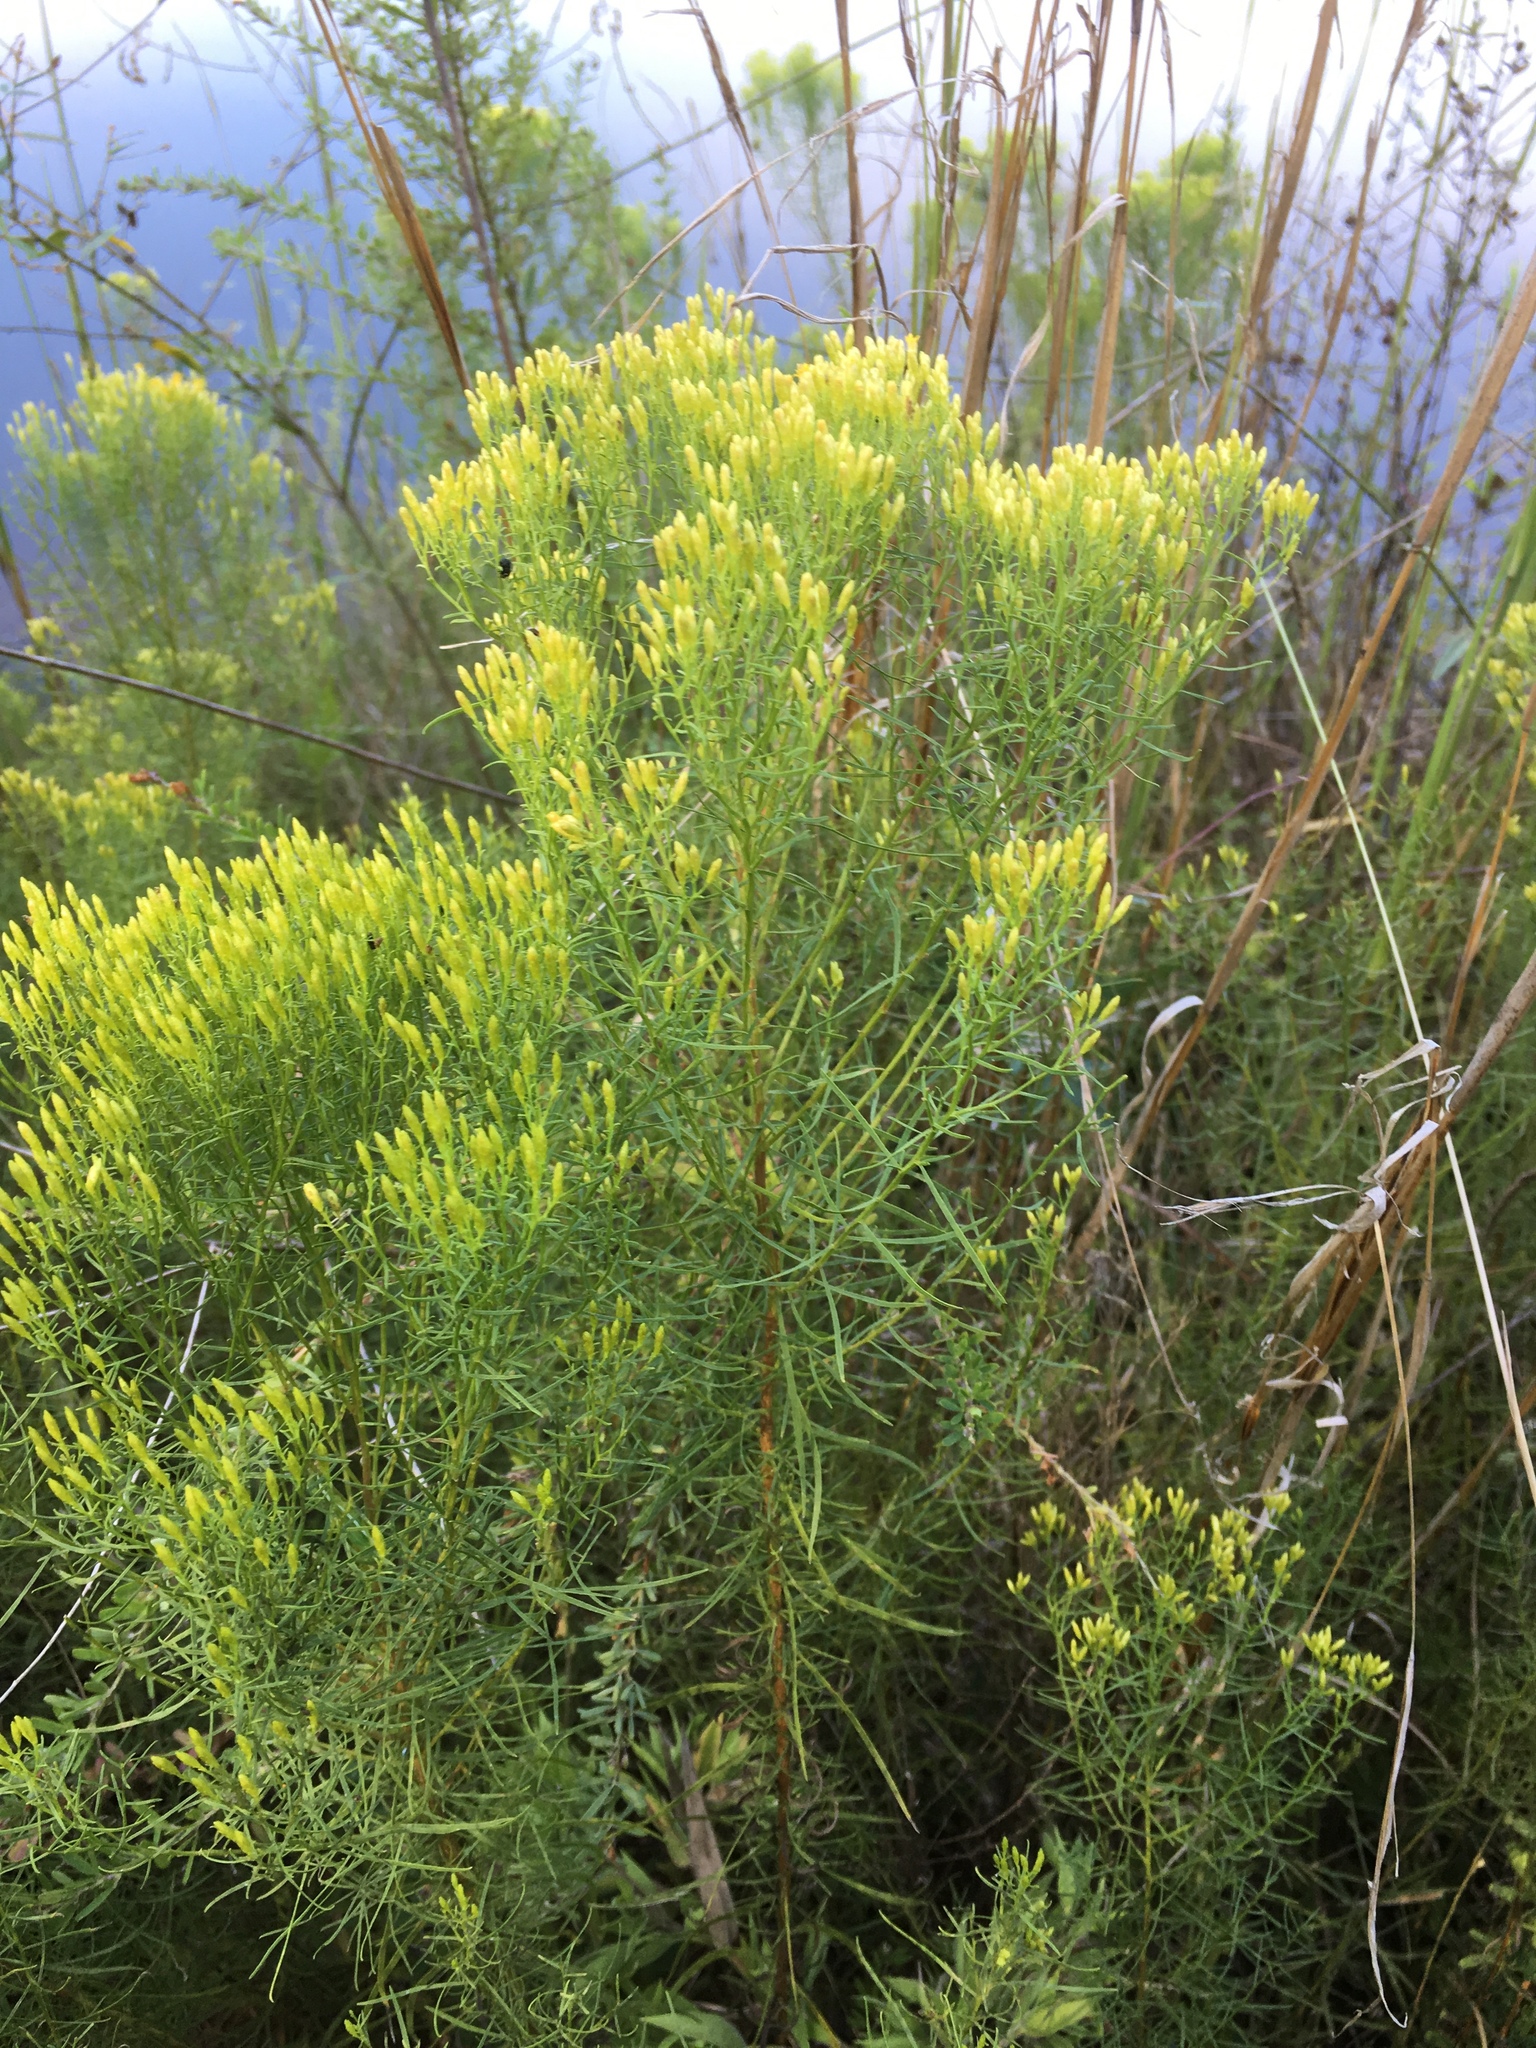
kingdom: Plantae
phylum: Tracheophyta
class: Magnoliopsida
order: Asterales
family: Asteraceae
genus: Euthamia
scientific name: Euthamia caroliniana
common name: Coastal plain goldentop
